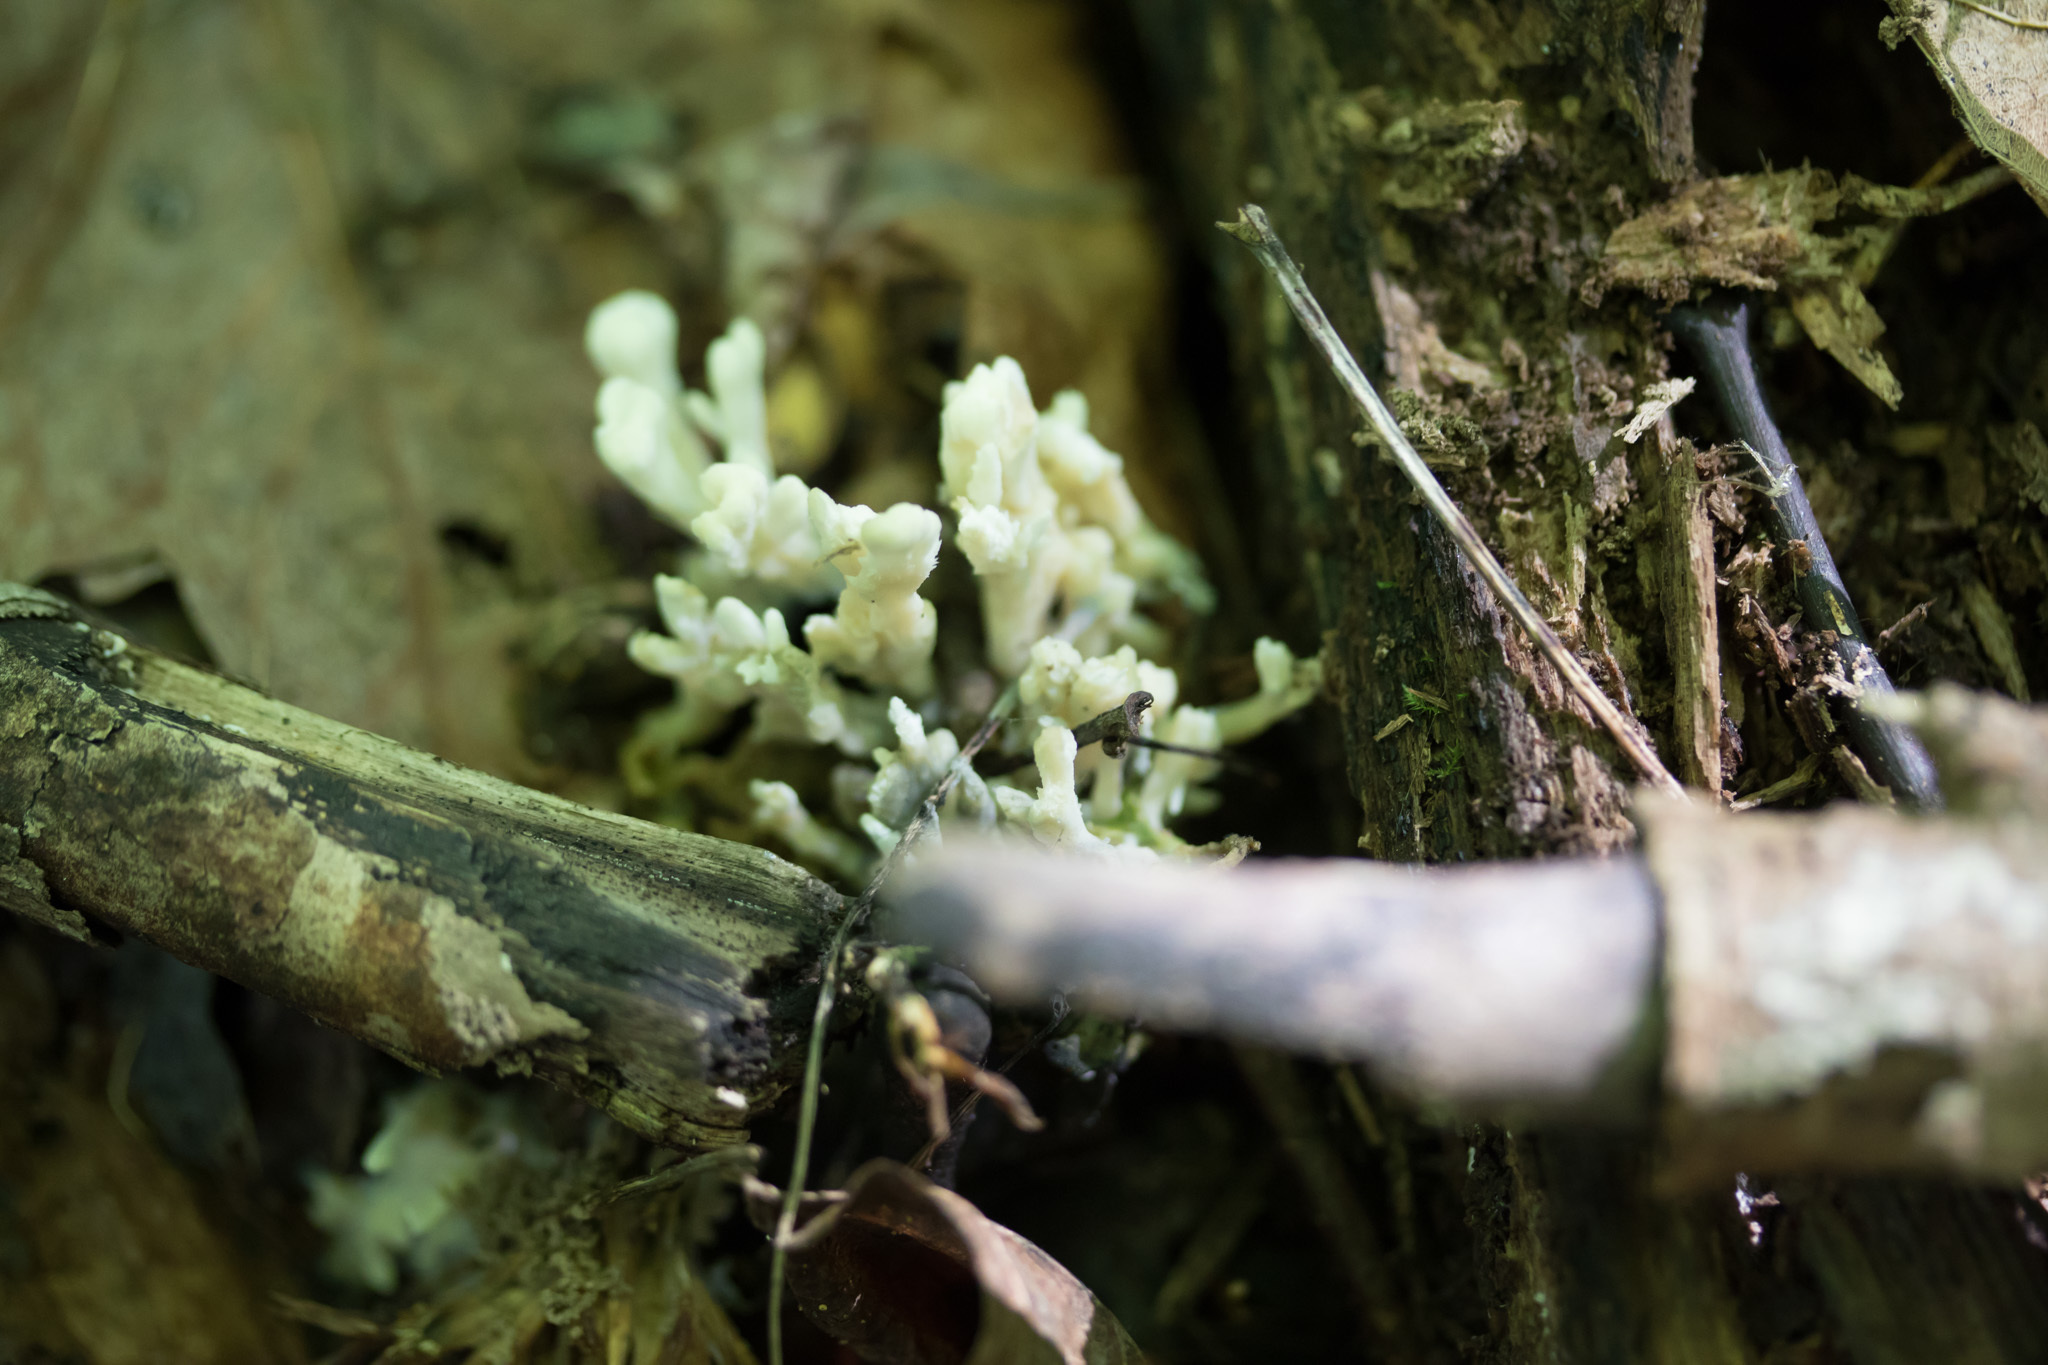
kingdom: Fungi
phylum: Basidiomycota
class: Agaricomycetes
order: Sebacinales
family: Sebacinaceae
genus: Sebacina
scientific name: Sebacina schweinitzii
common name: Jellied false coral fungus
